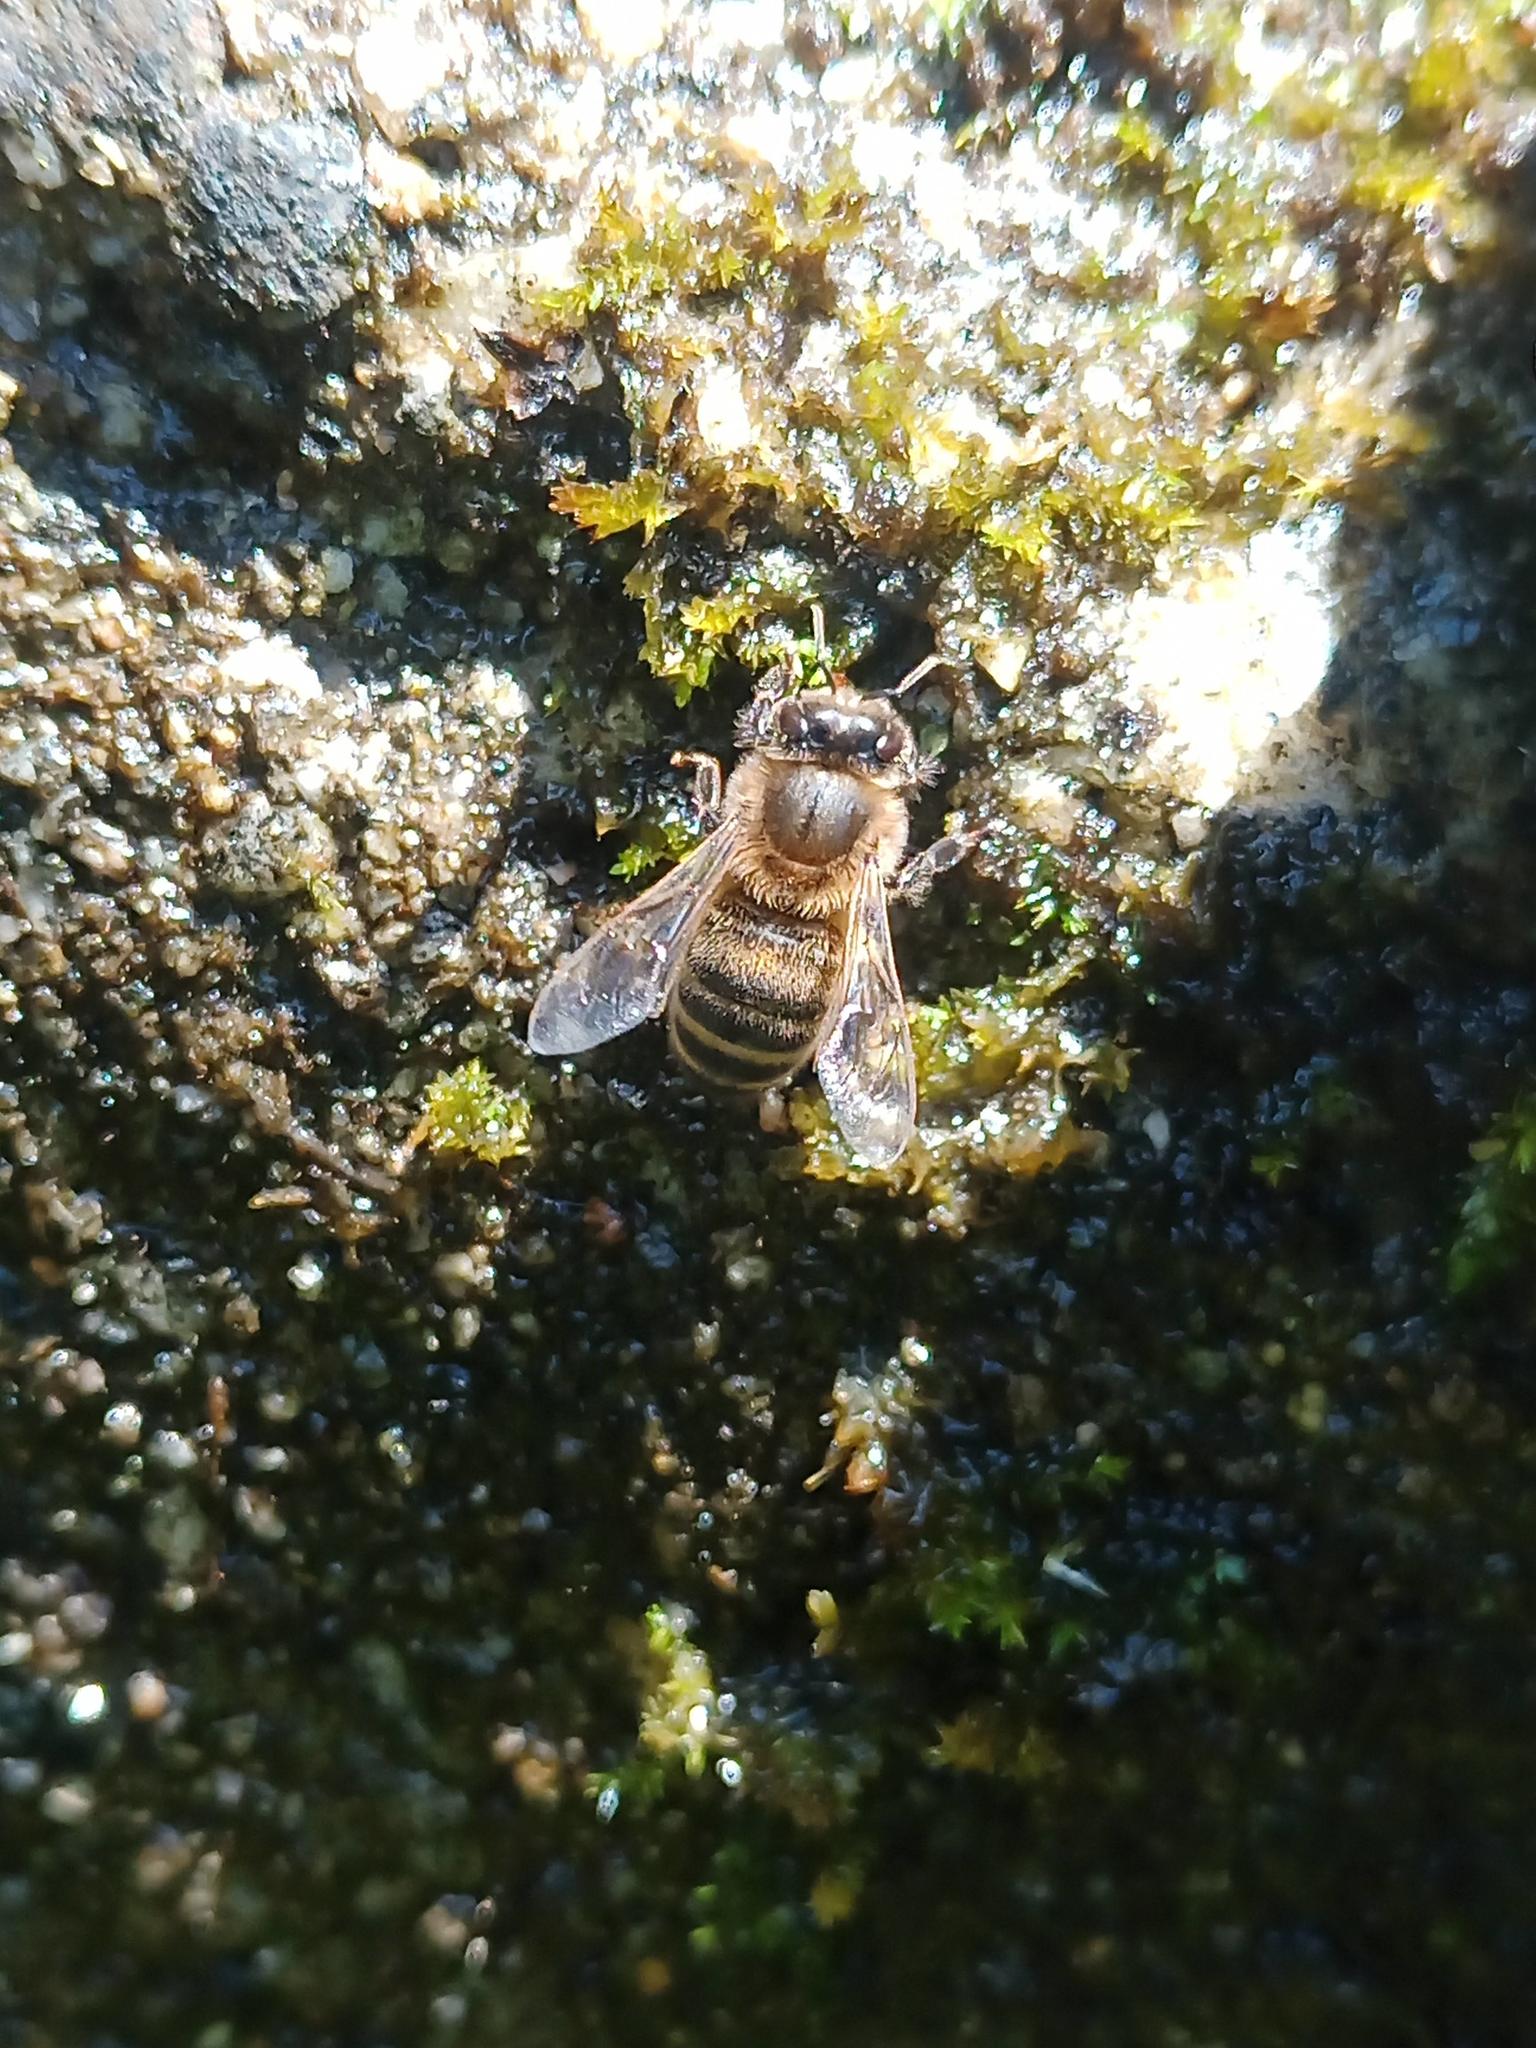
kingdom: Animalia
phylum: Arthropoda
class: Insecta
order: Hymenoptera
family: Apidae
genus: Apis
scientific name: Apis mellifera
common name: Honey bee
